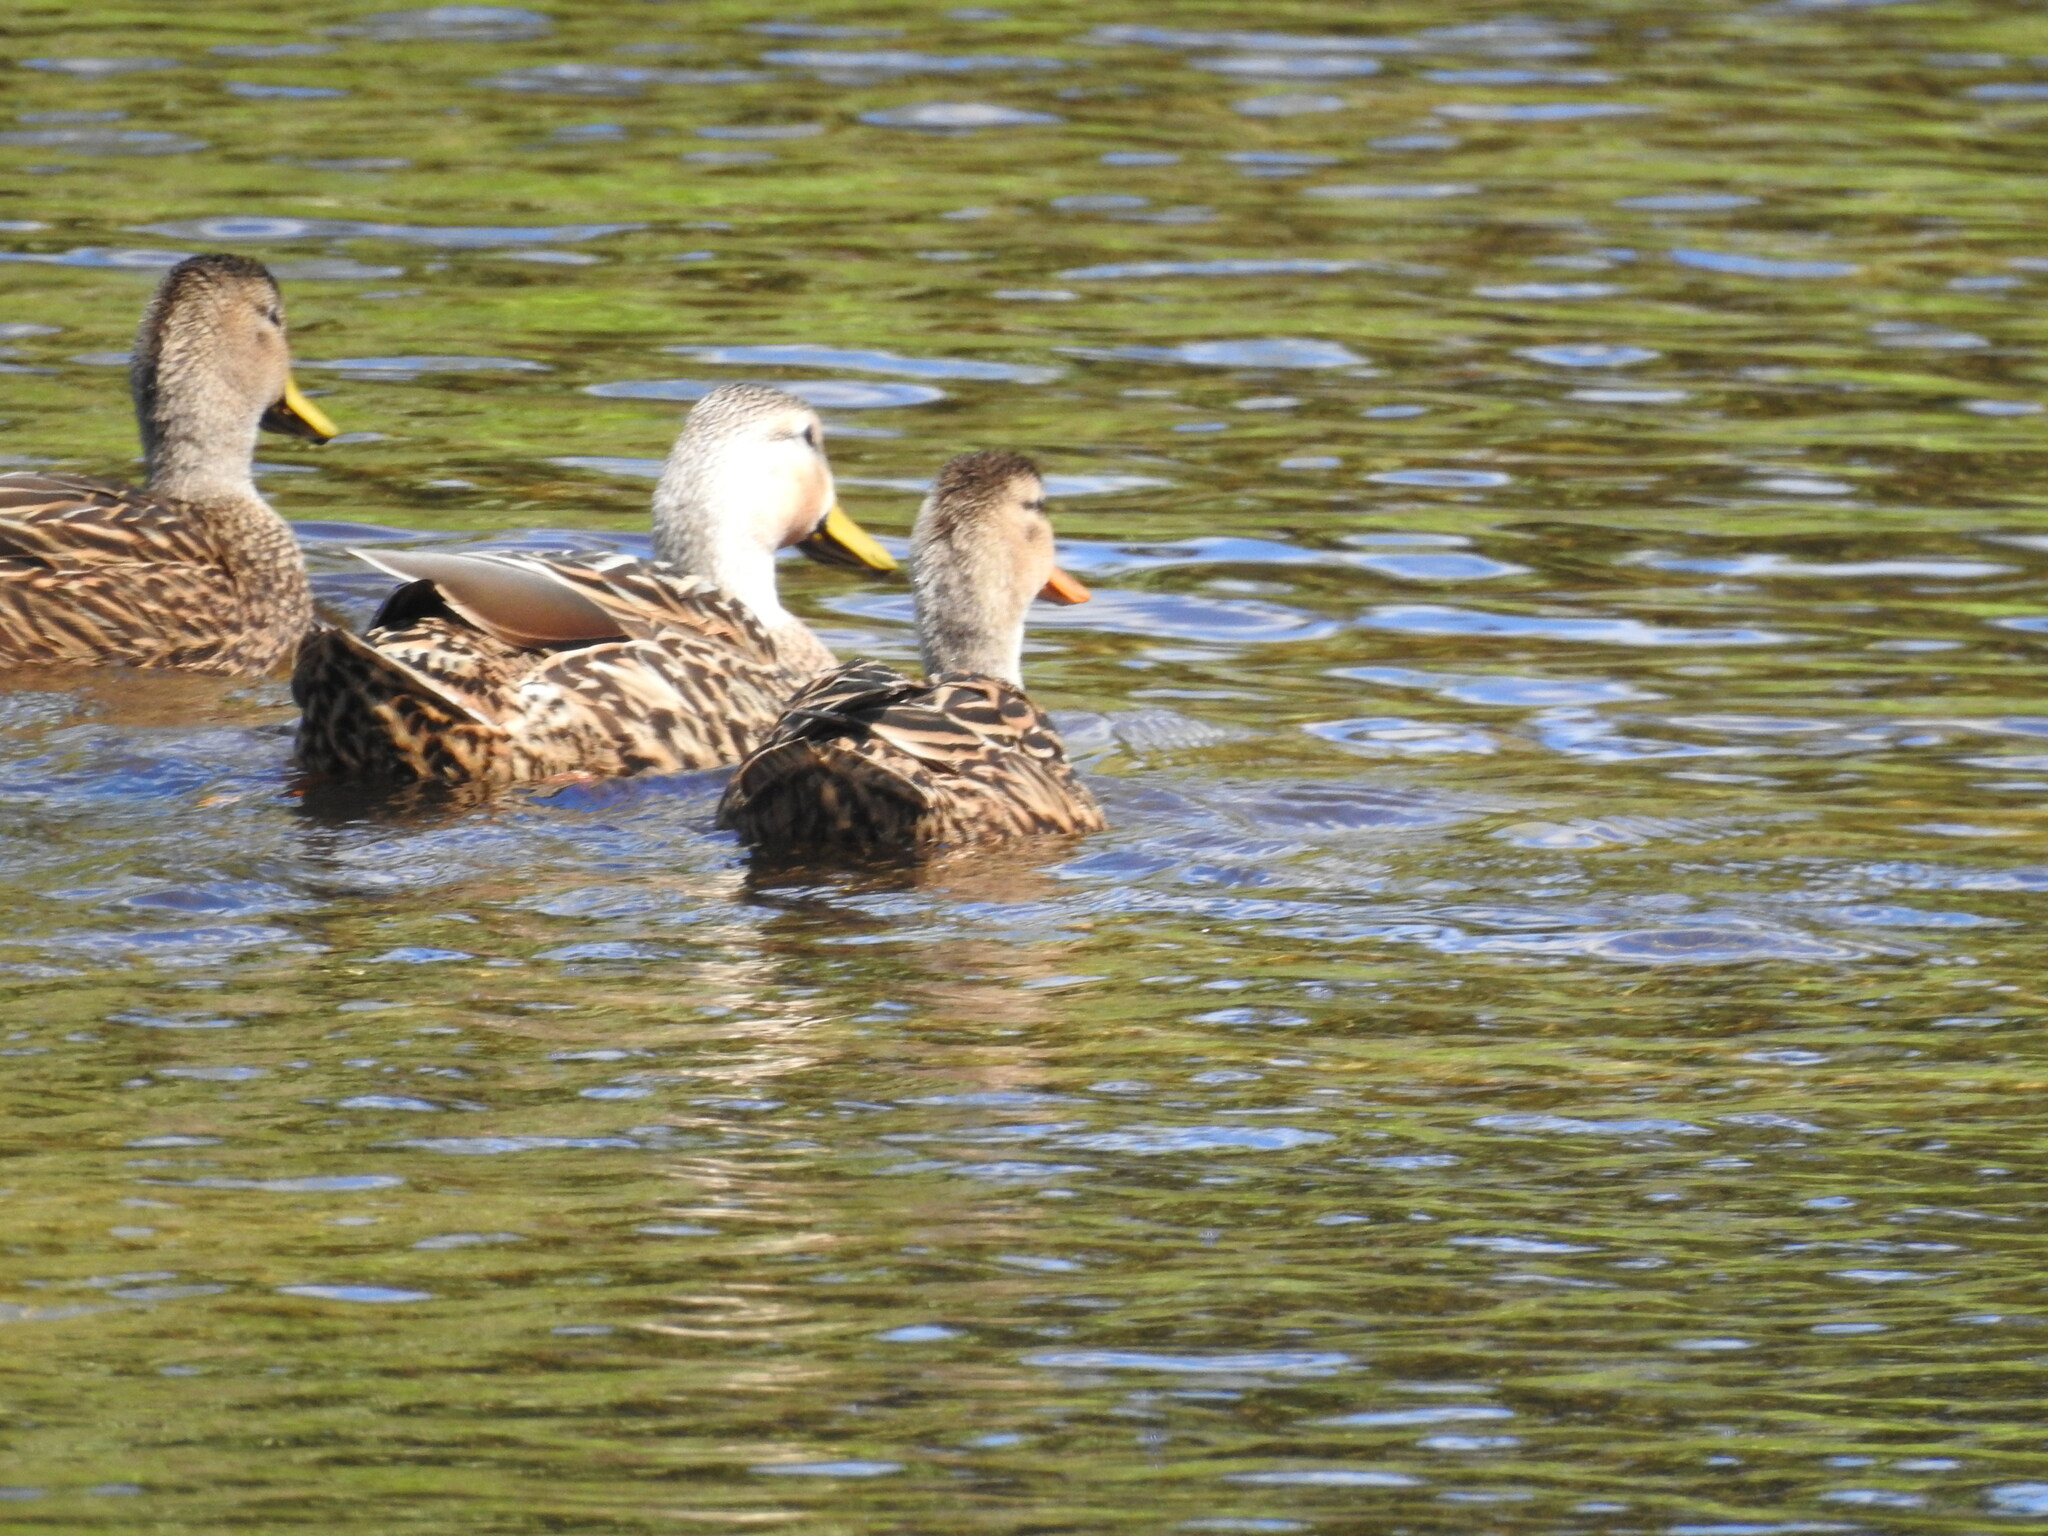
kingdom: Animalia
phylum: Chordata
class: Aves
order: Anseriformes
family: Anatidae
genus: Anas
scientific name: Anas fulvigula
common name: Mottled duck
